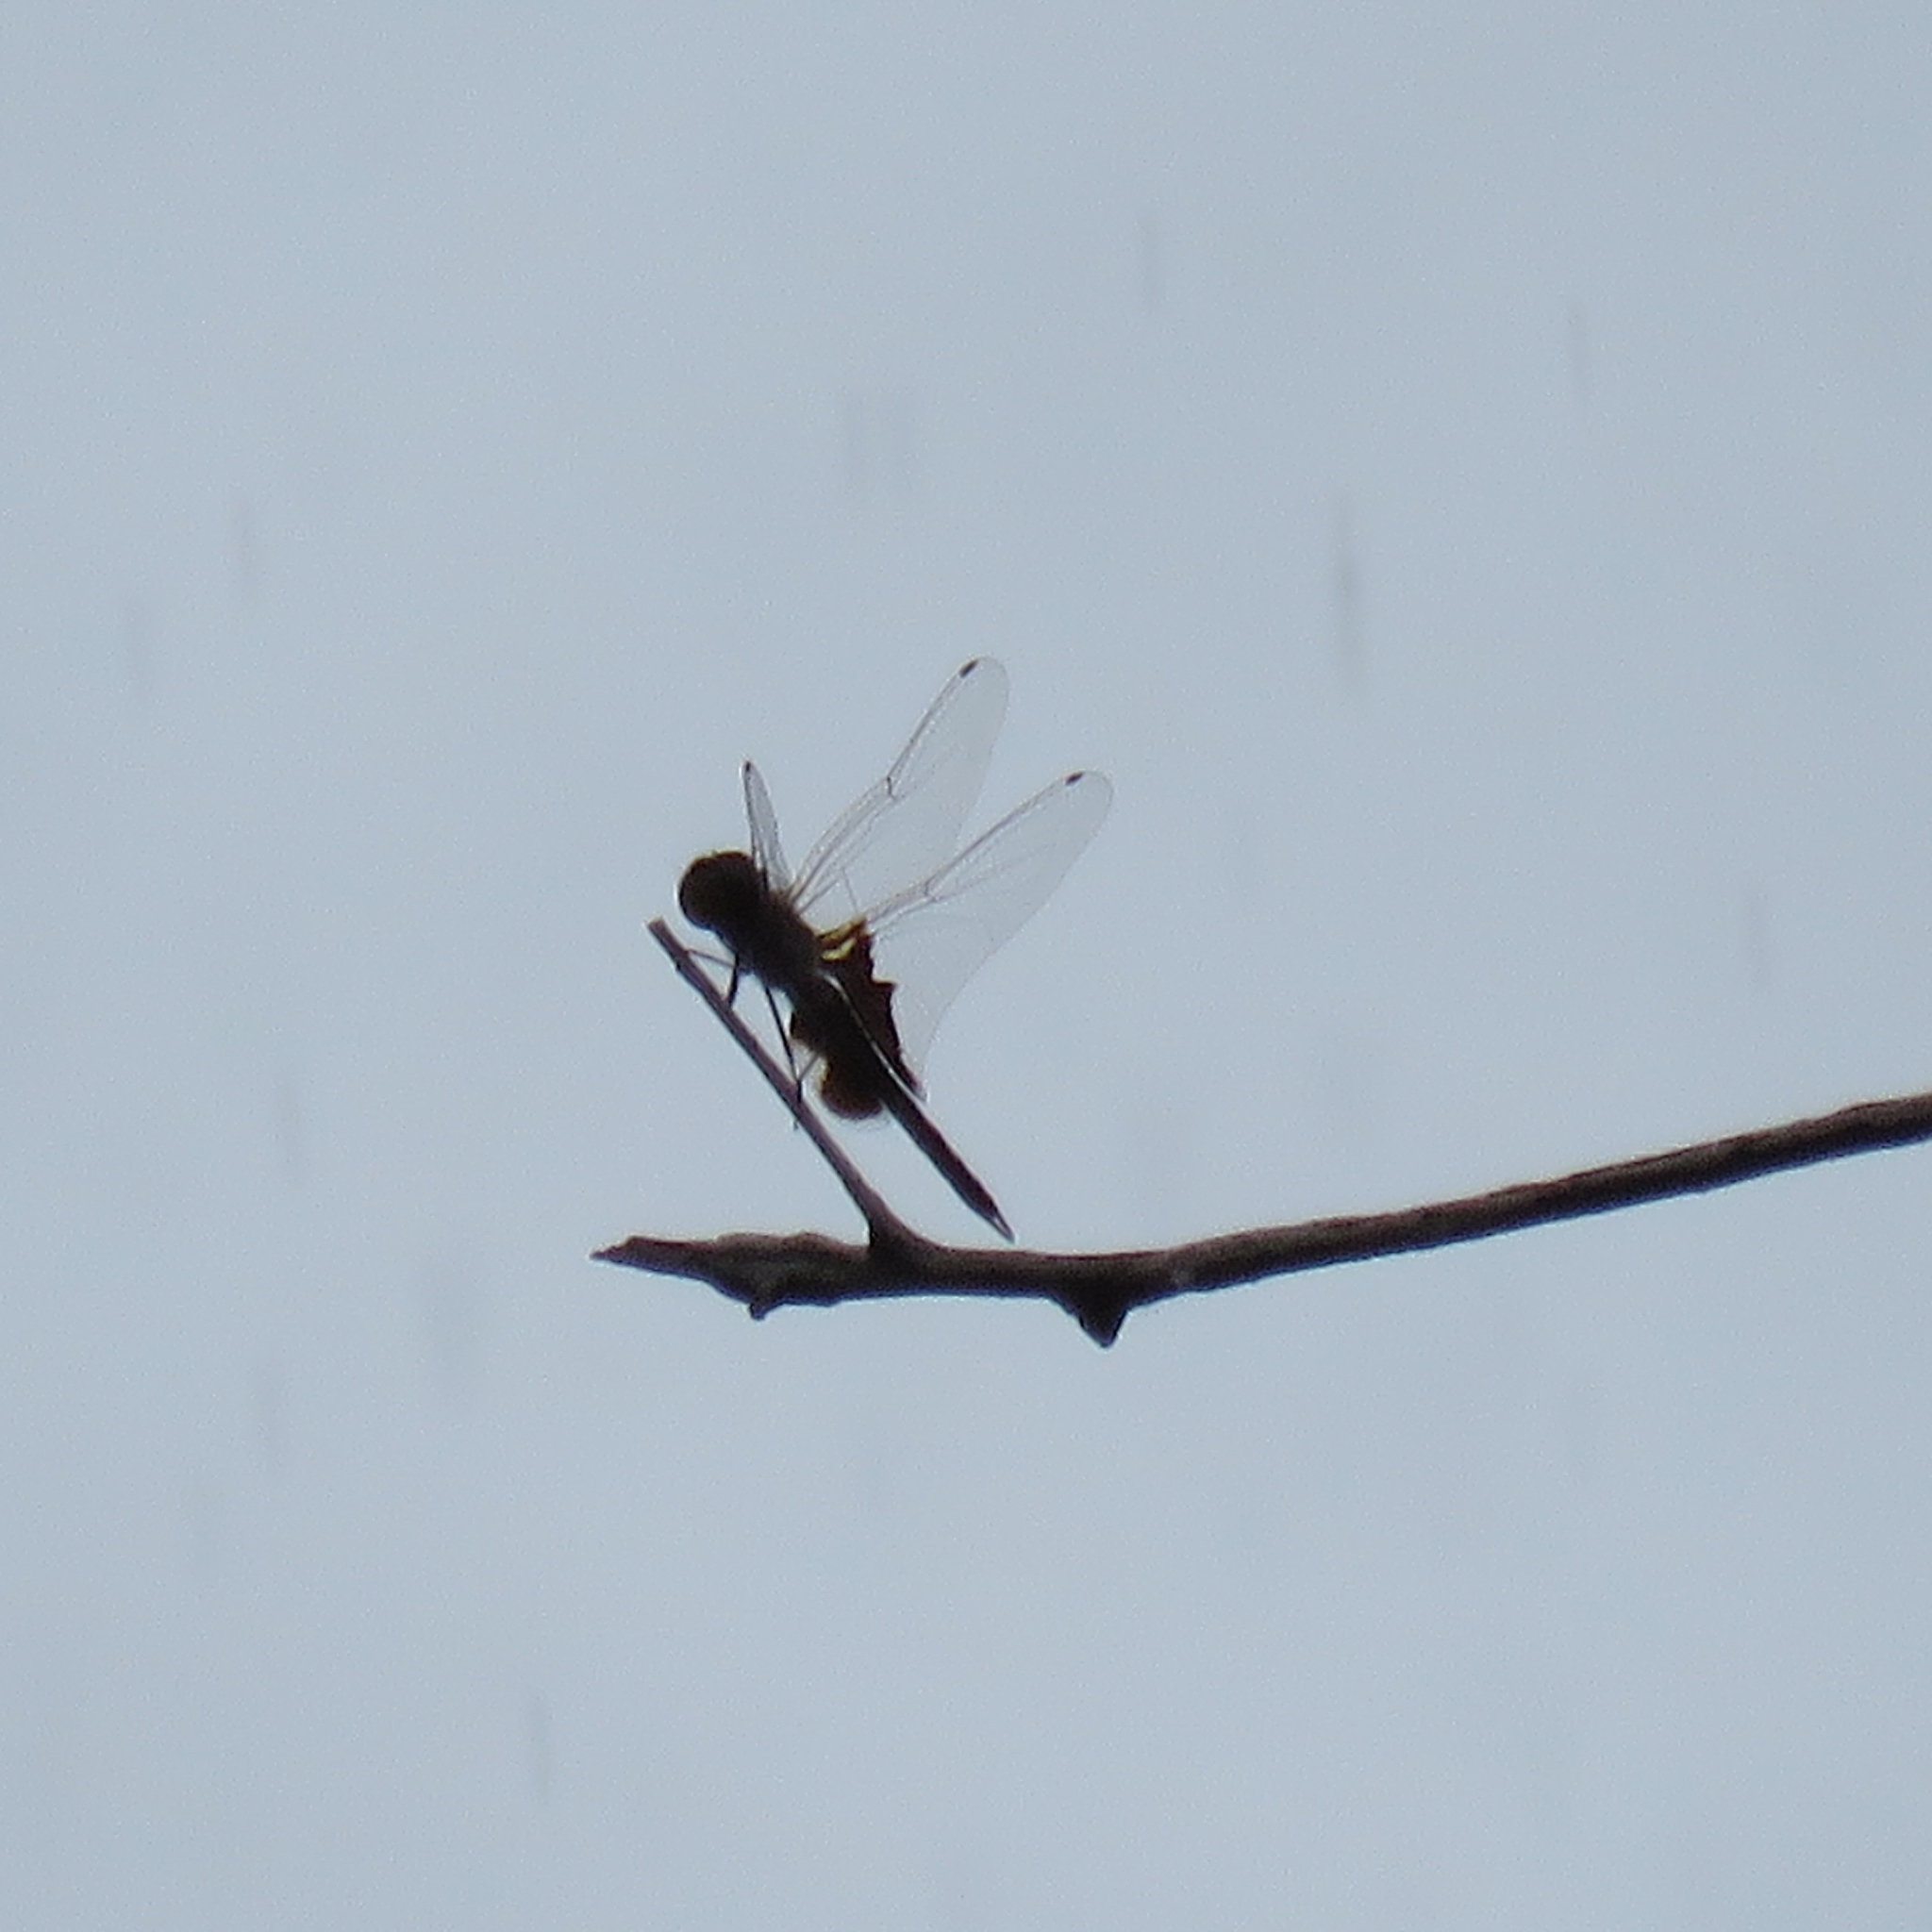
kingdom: Animalia
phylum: Arthropoda
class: Insecta
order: Odonata
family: Libellulidae
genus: Tramea
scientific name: Tramea lacerata
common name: Black saddlebags
